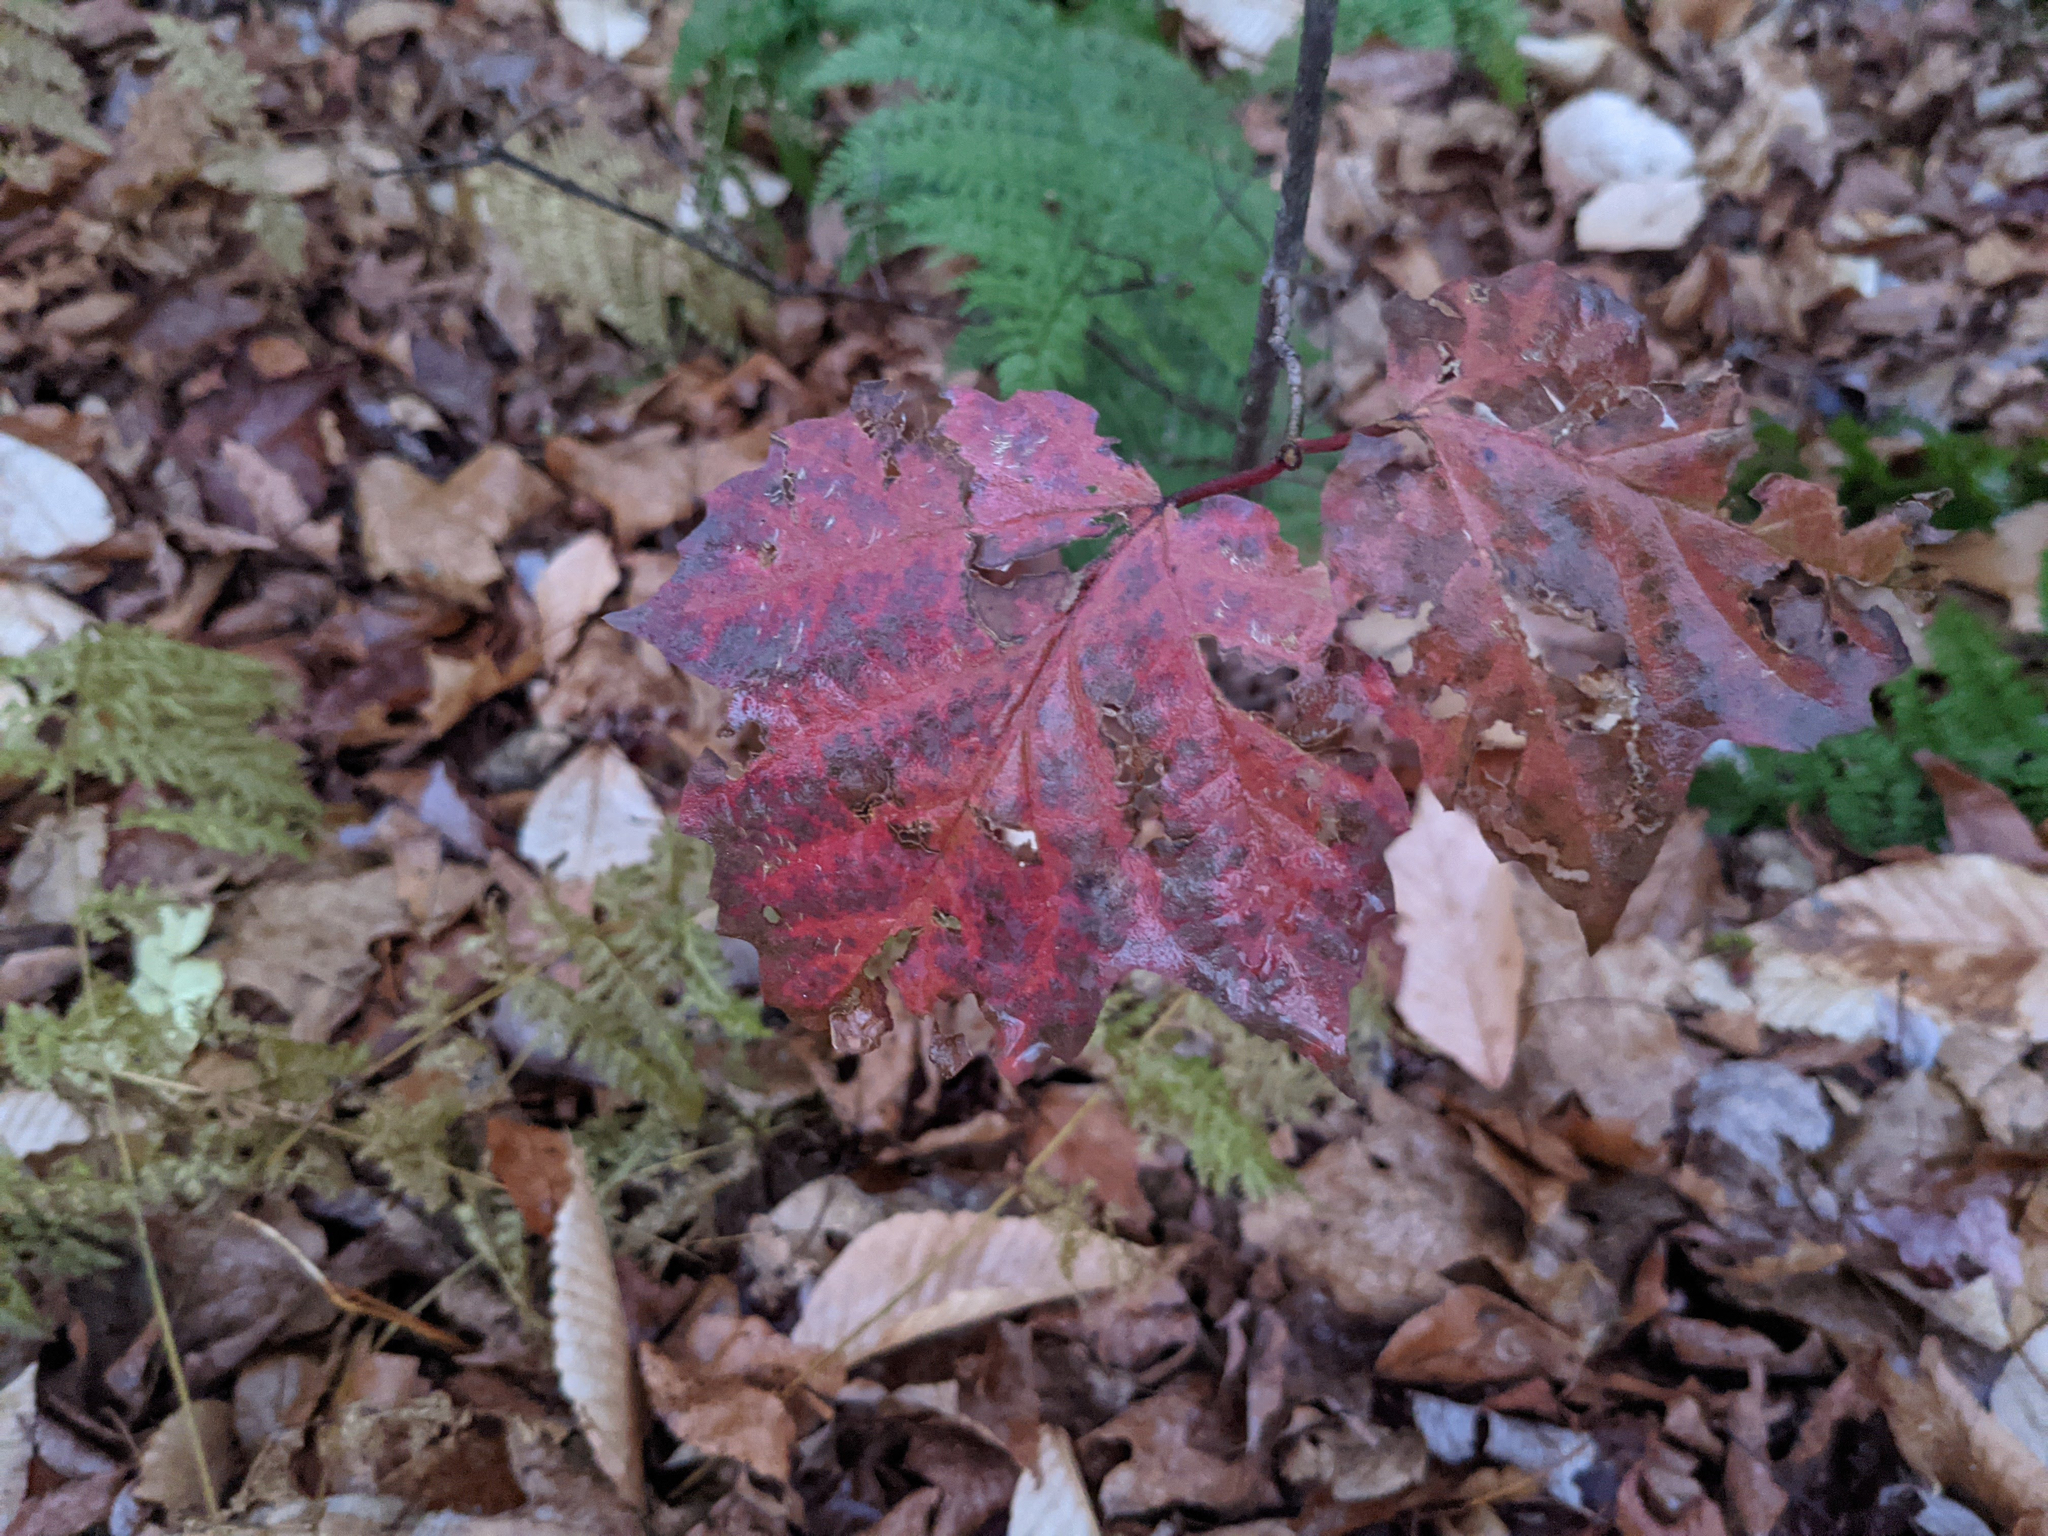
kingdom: Plantae
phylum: Tracheophyta
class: Magnoliopsida
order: Dipsacales
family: Viburnaceae
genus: Viburnum
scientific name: Viburnum acerifolium
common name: Dockmackie
